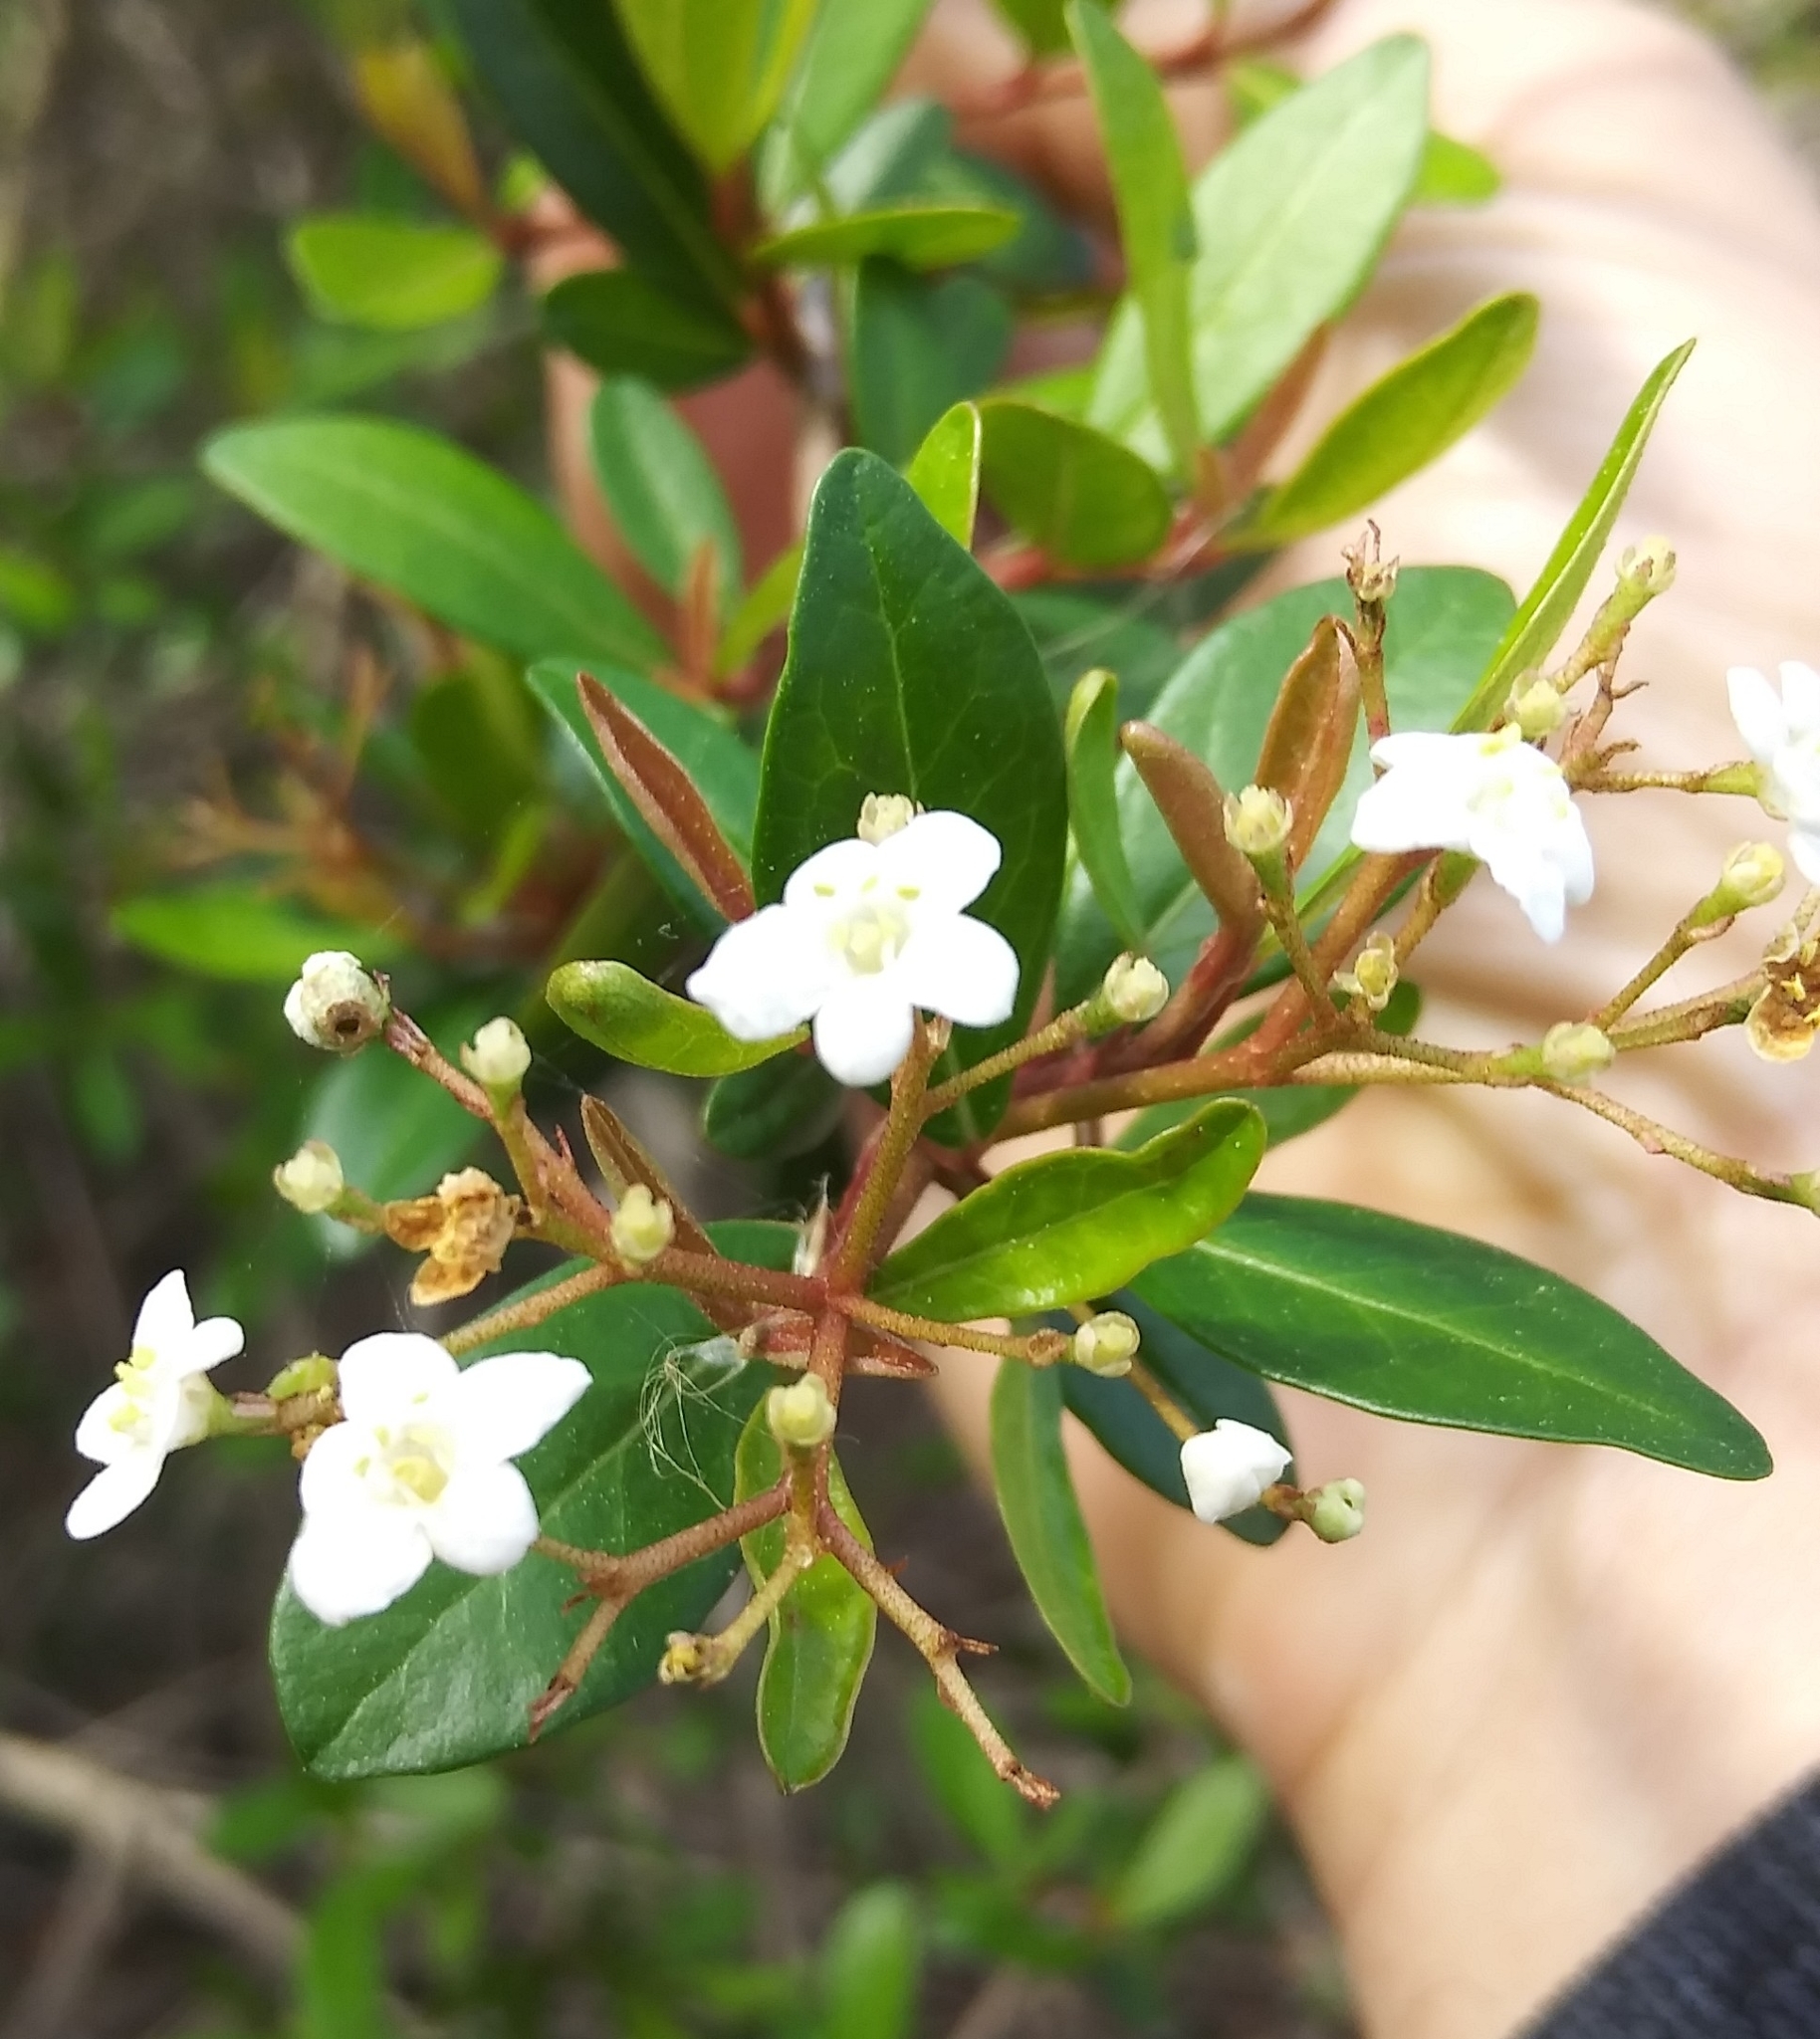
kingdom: Plantae
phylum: Tracheophyta
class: Magnoliopsida
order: Dipsacales
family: Viburnaceae
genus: Viburnum
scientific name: Viburnum obovatum
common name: Walter's viburnum
